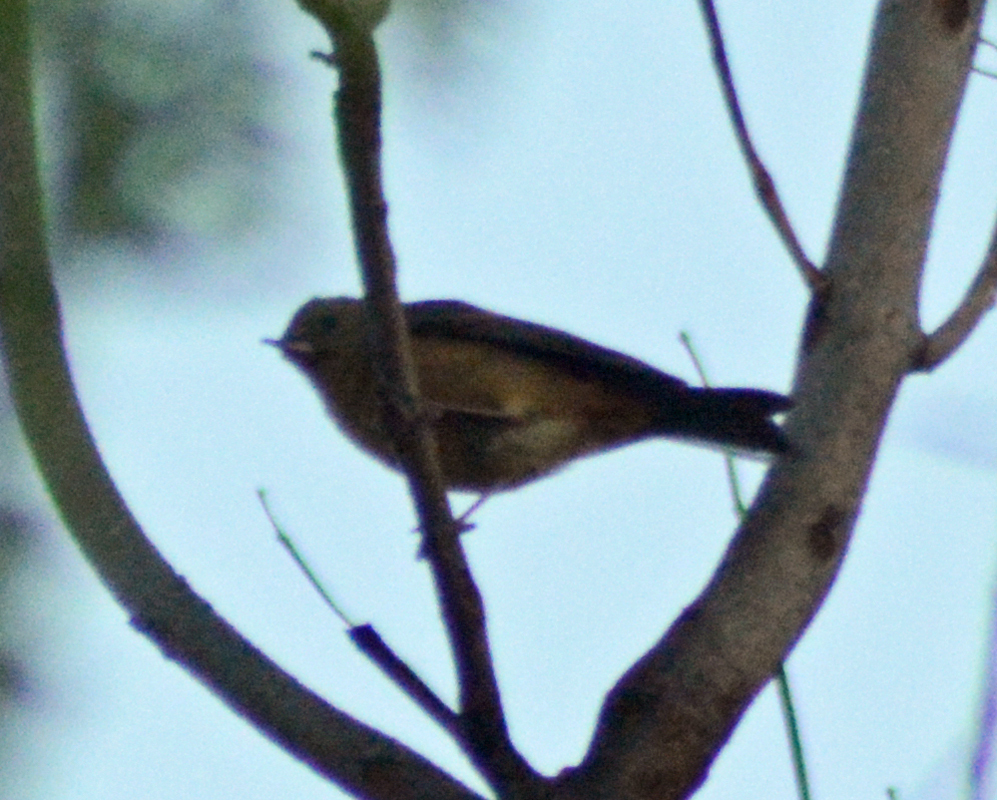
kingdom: Animalia
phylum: Chordata
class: Aves
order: Passeriformes
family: Thraupidae
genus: Diglossa
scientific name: Diglossa baritula
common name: Cinnamon-bellied flowerpiercer
